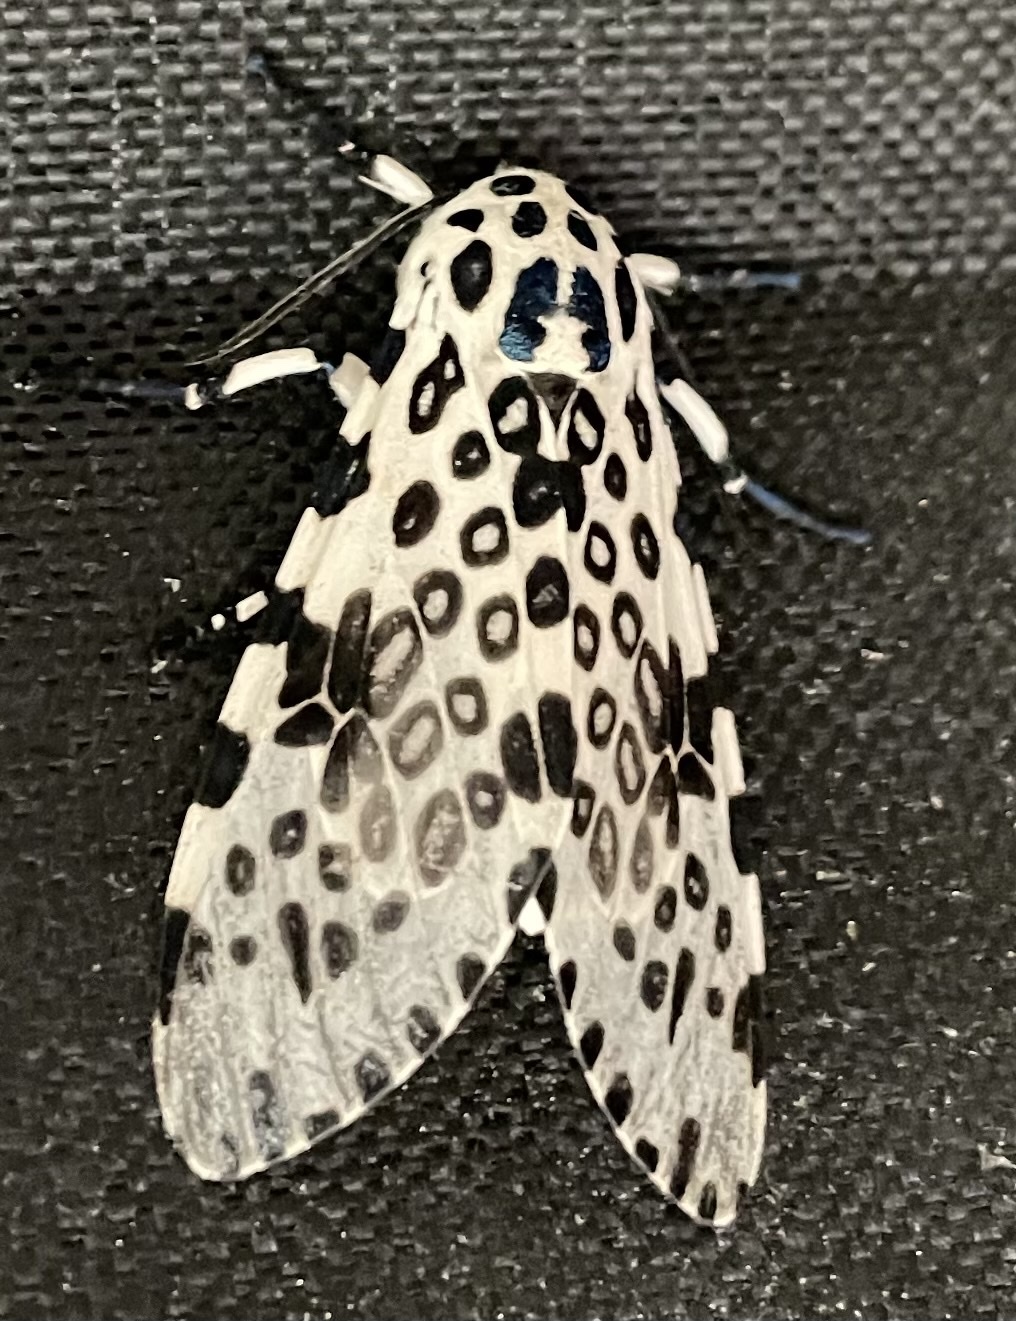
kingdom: Animalia
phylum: Arthropoda
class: Insecta
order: Lepidoptera
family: Erebidae
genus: Hypercompe
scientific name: Hypercompe scribonia
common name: Giant leopard moth
